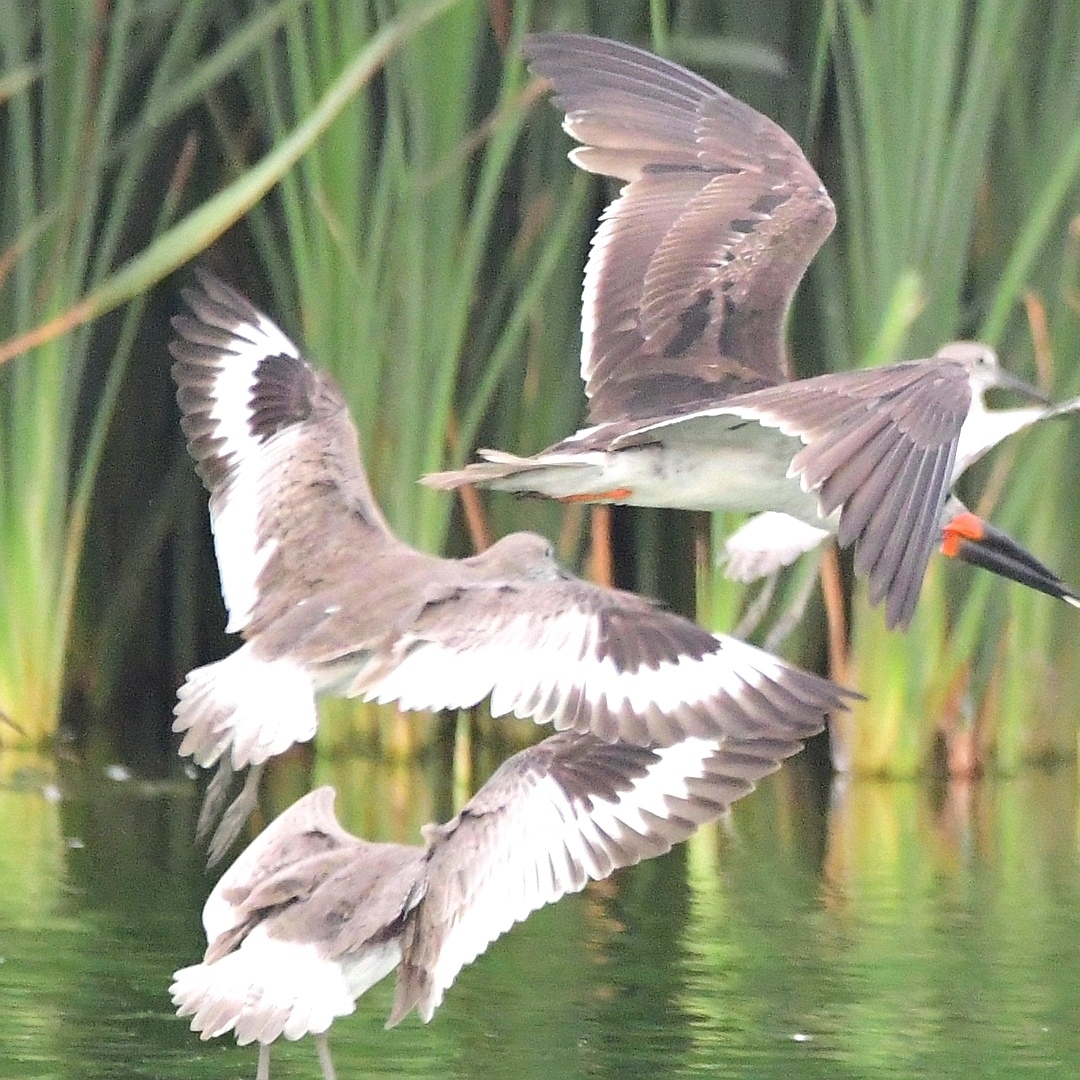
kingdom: Animalia
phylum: Chordata
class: Aves
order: Charadriiformes
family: Scolopacidae
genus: Tringa
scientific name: Tringa semipalmata
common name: Willet
